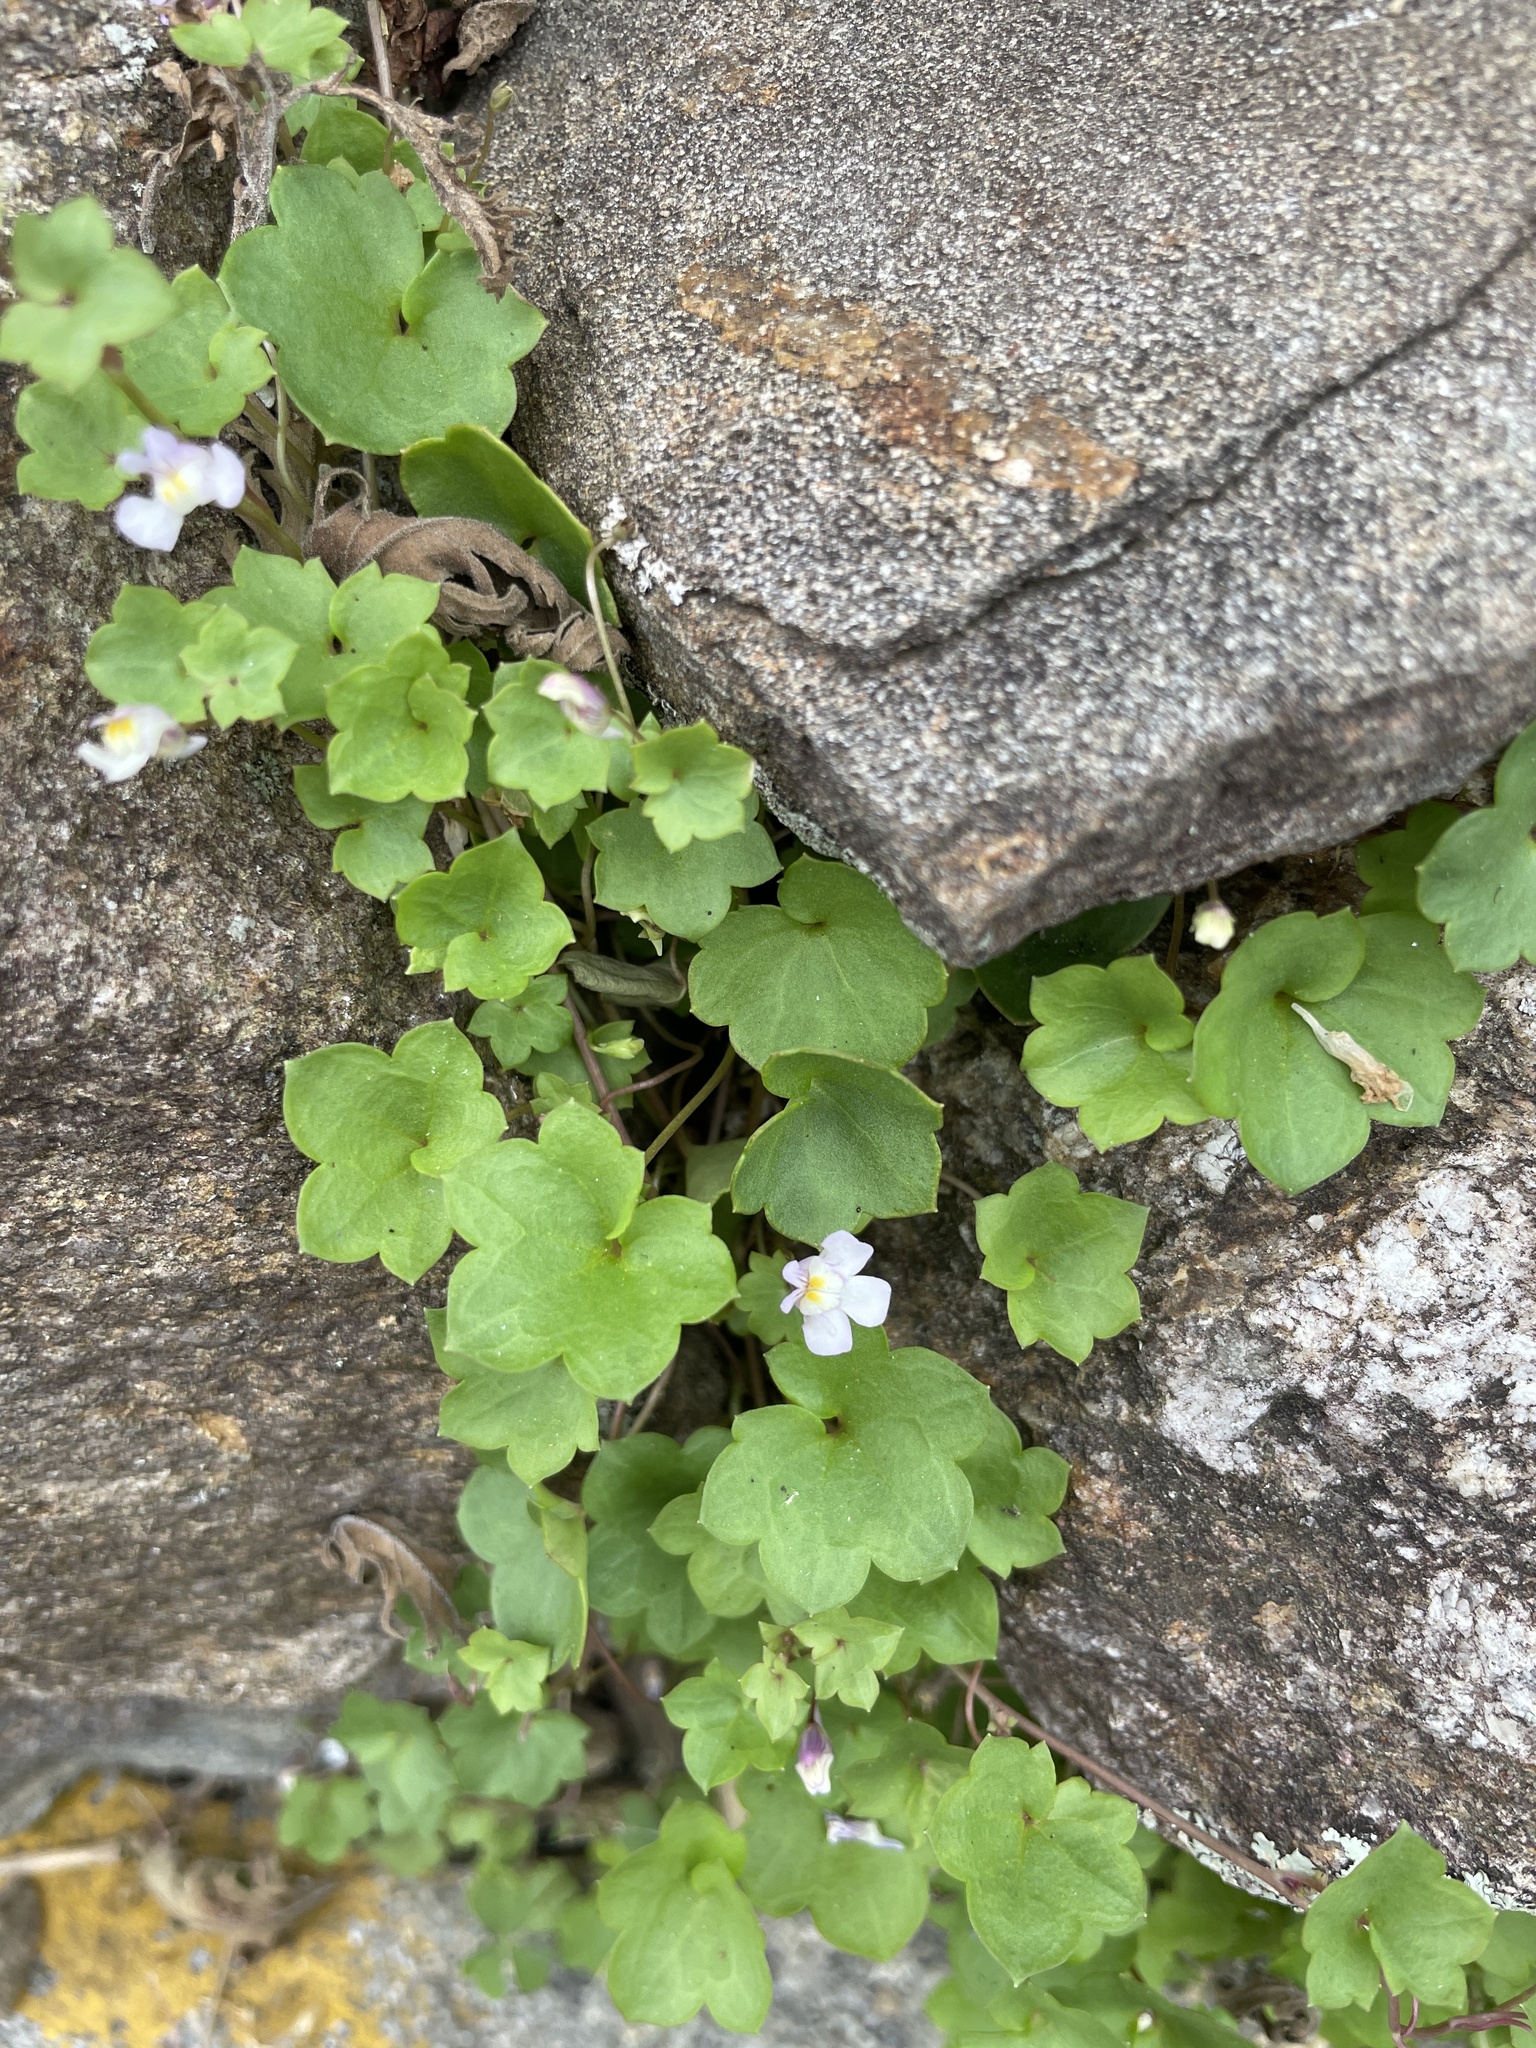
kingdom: Plantae
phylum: Tracheophyta
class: Magnoliopsida
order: Lamiales
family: Plantaginaceae
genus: Cymbalaria
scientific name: Cymbalaria muralis
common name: Ivy-leaved toadflax
